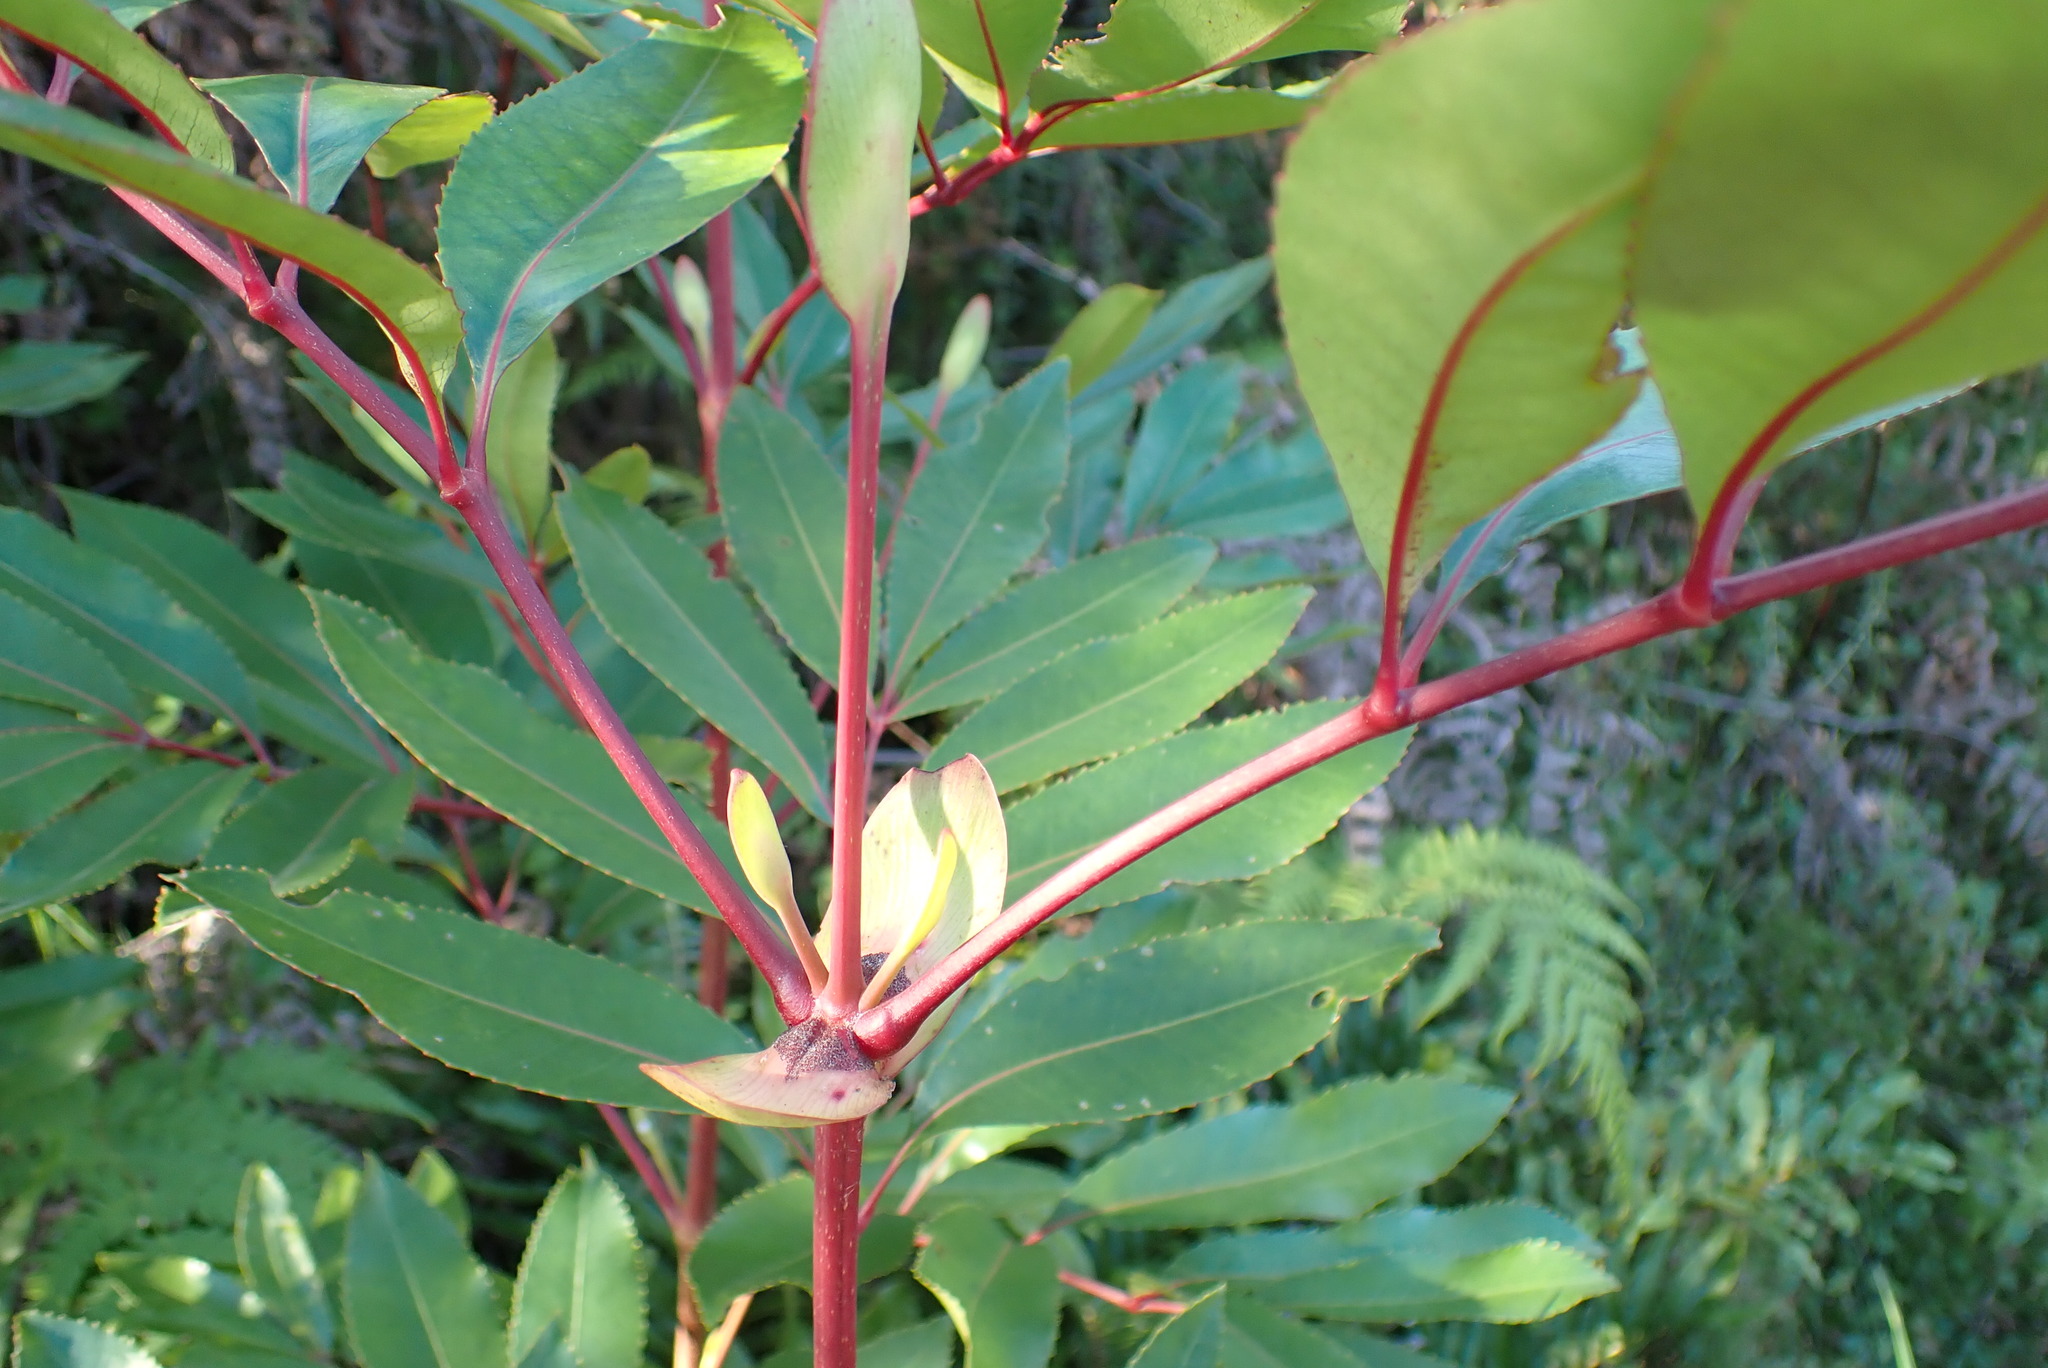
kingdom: Plantae
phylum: Tracheophyta
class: Magnoliopsida
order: Oxalidales
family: Cunoniaceae
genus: Cunonia
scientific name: Cunonia capensis
